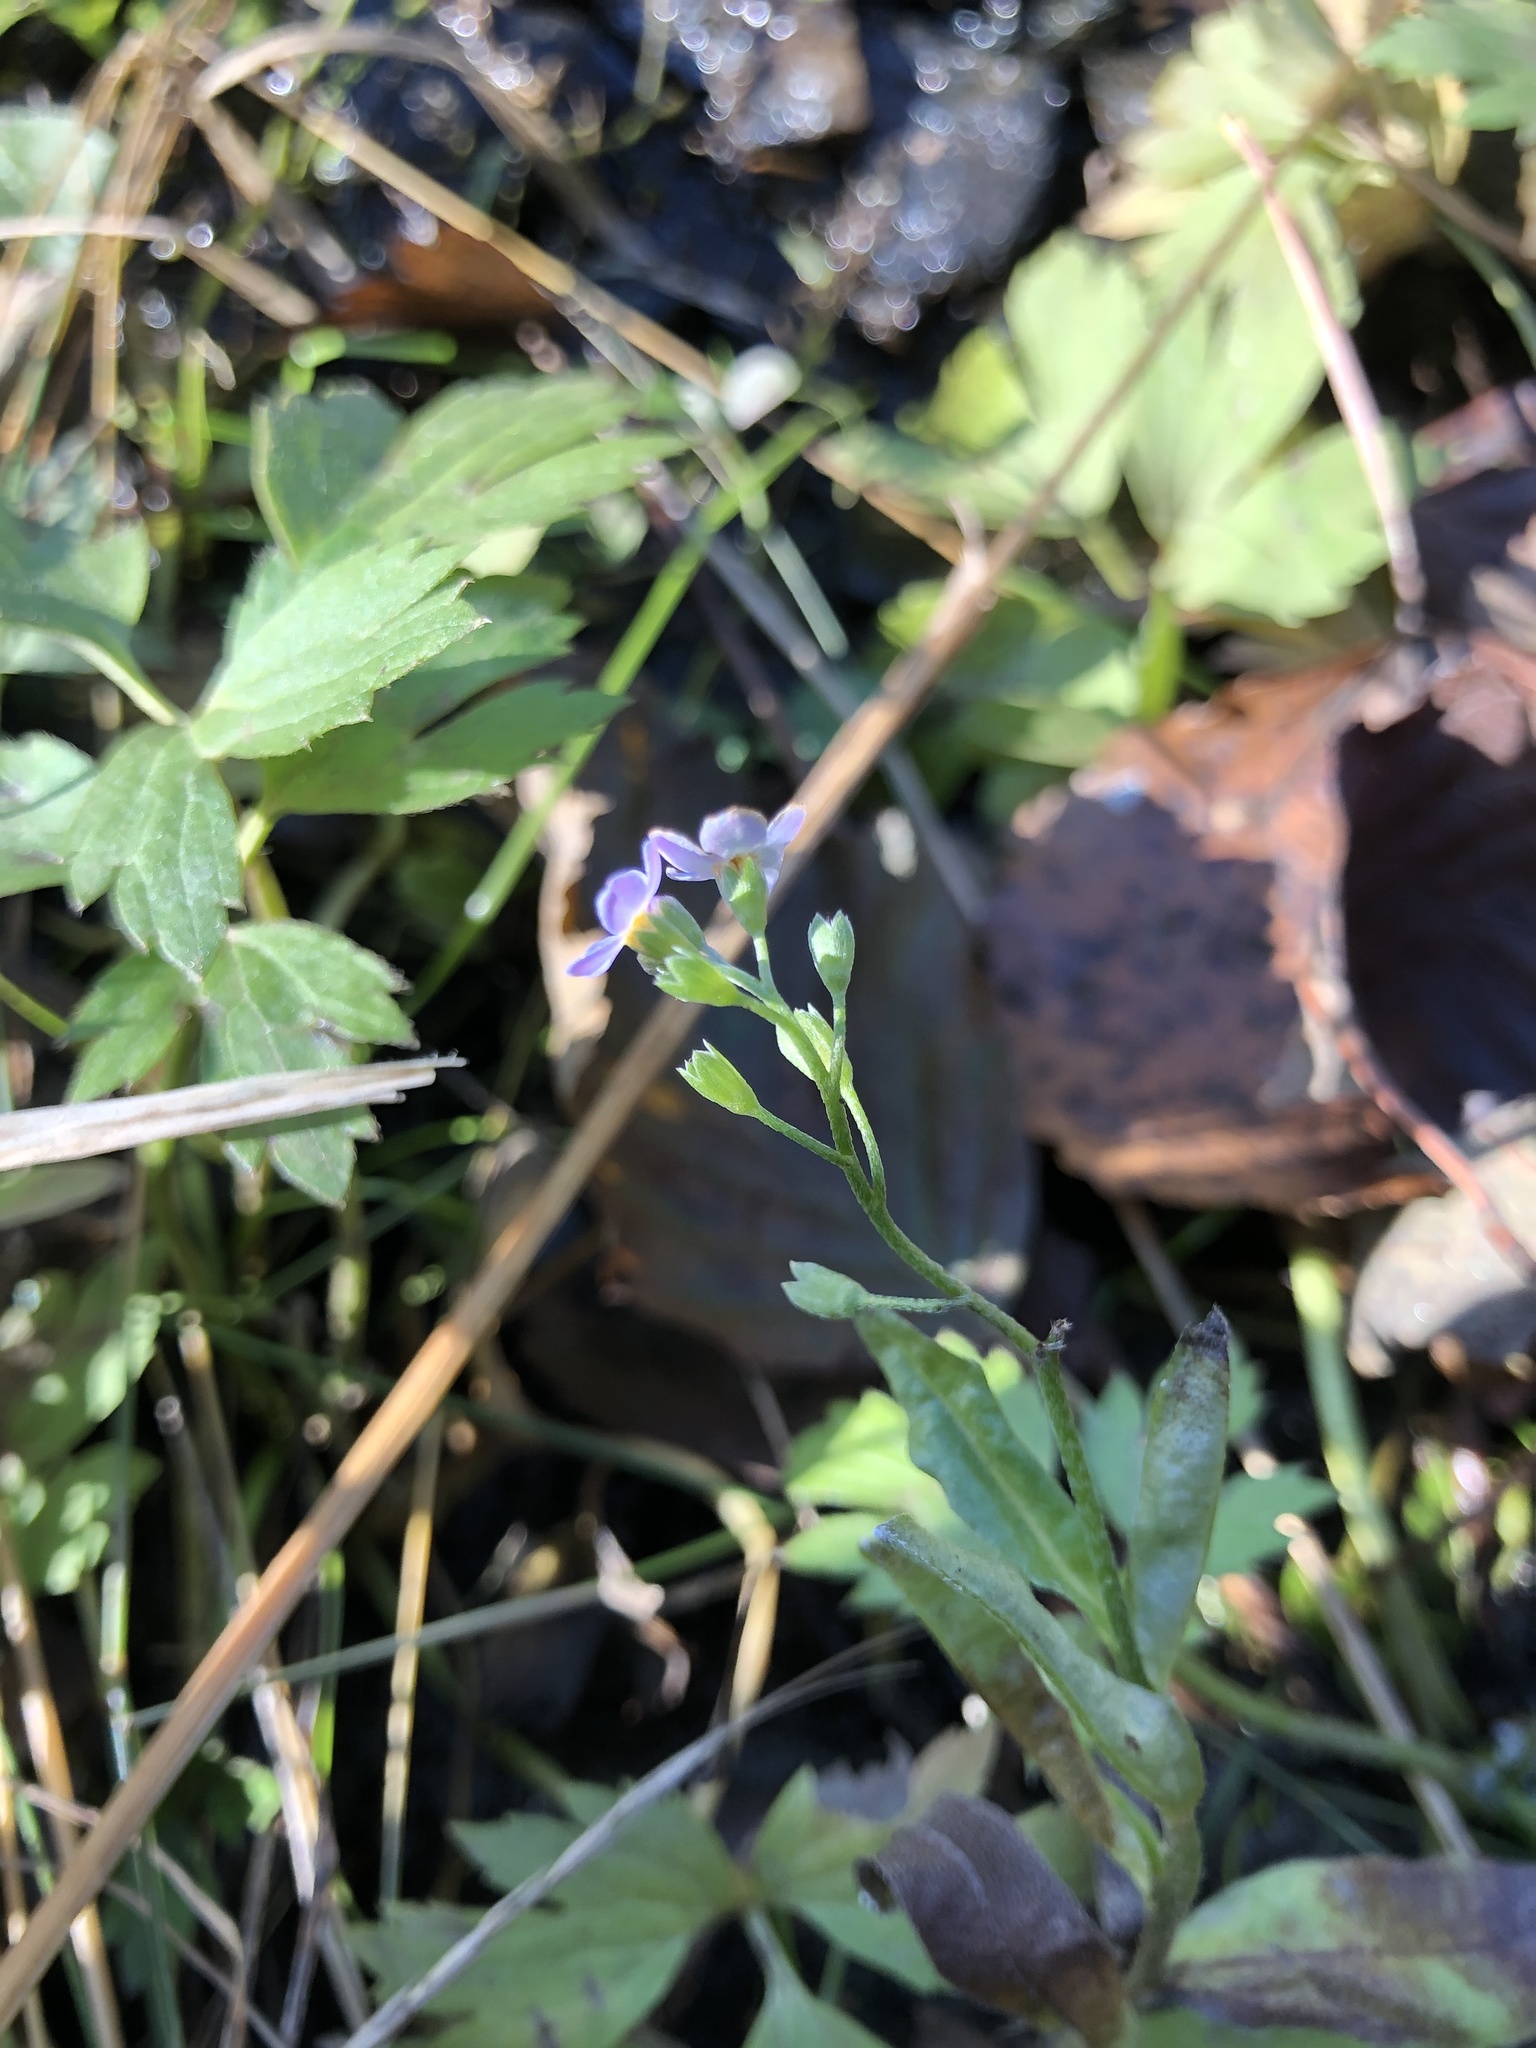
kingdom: Plantae
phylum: Tracheophyta
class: Magnoliopsida
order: Boraginales
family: Boraginaceae
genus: Myosotis
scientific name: Myosotis scorpioides
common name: Water forget-me-not
